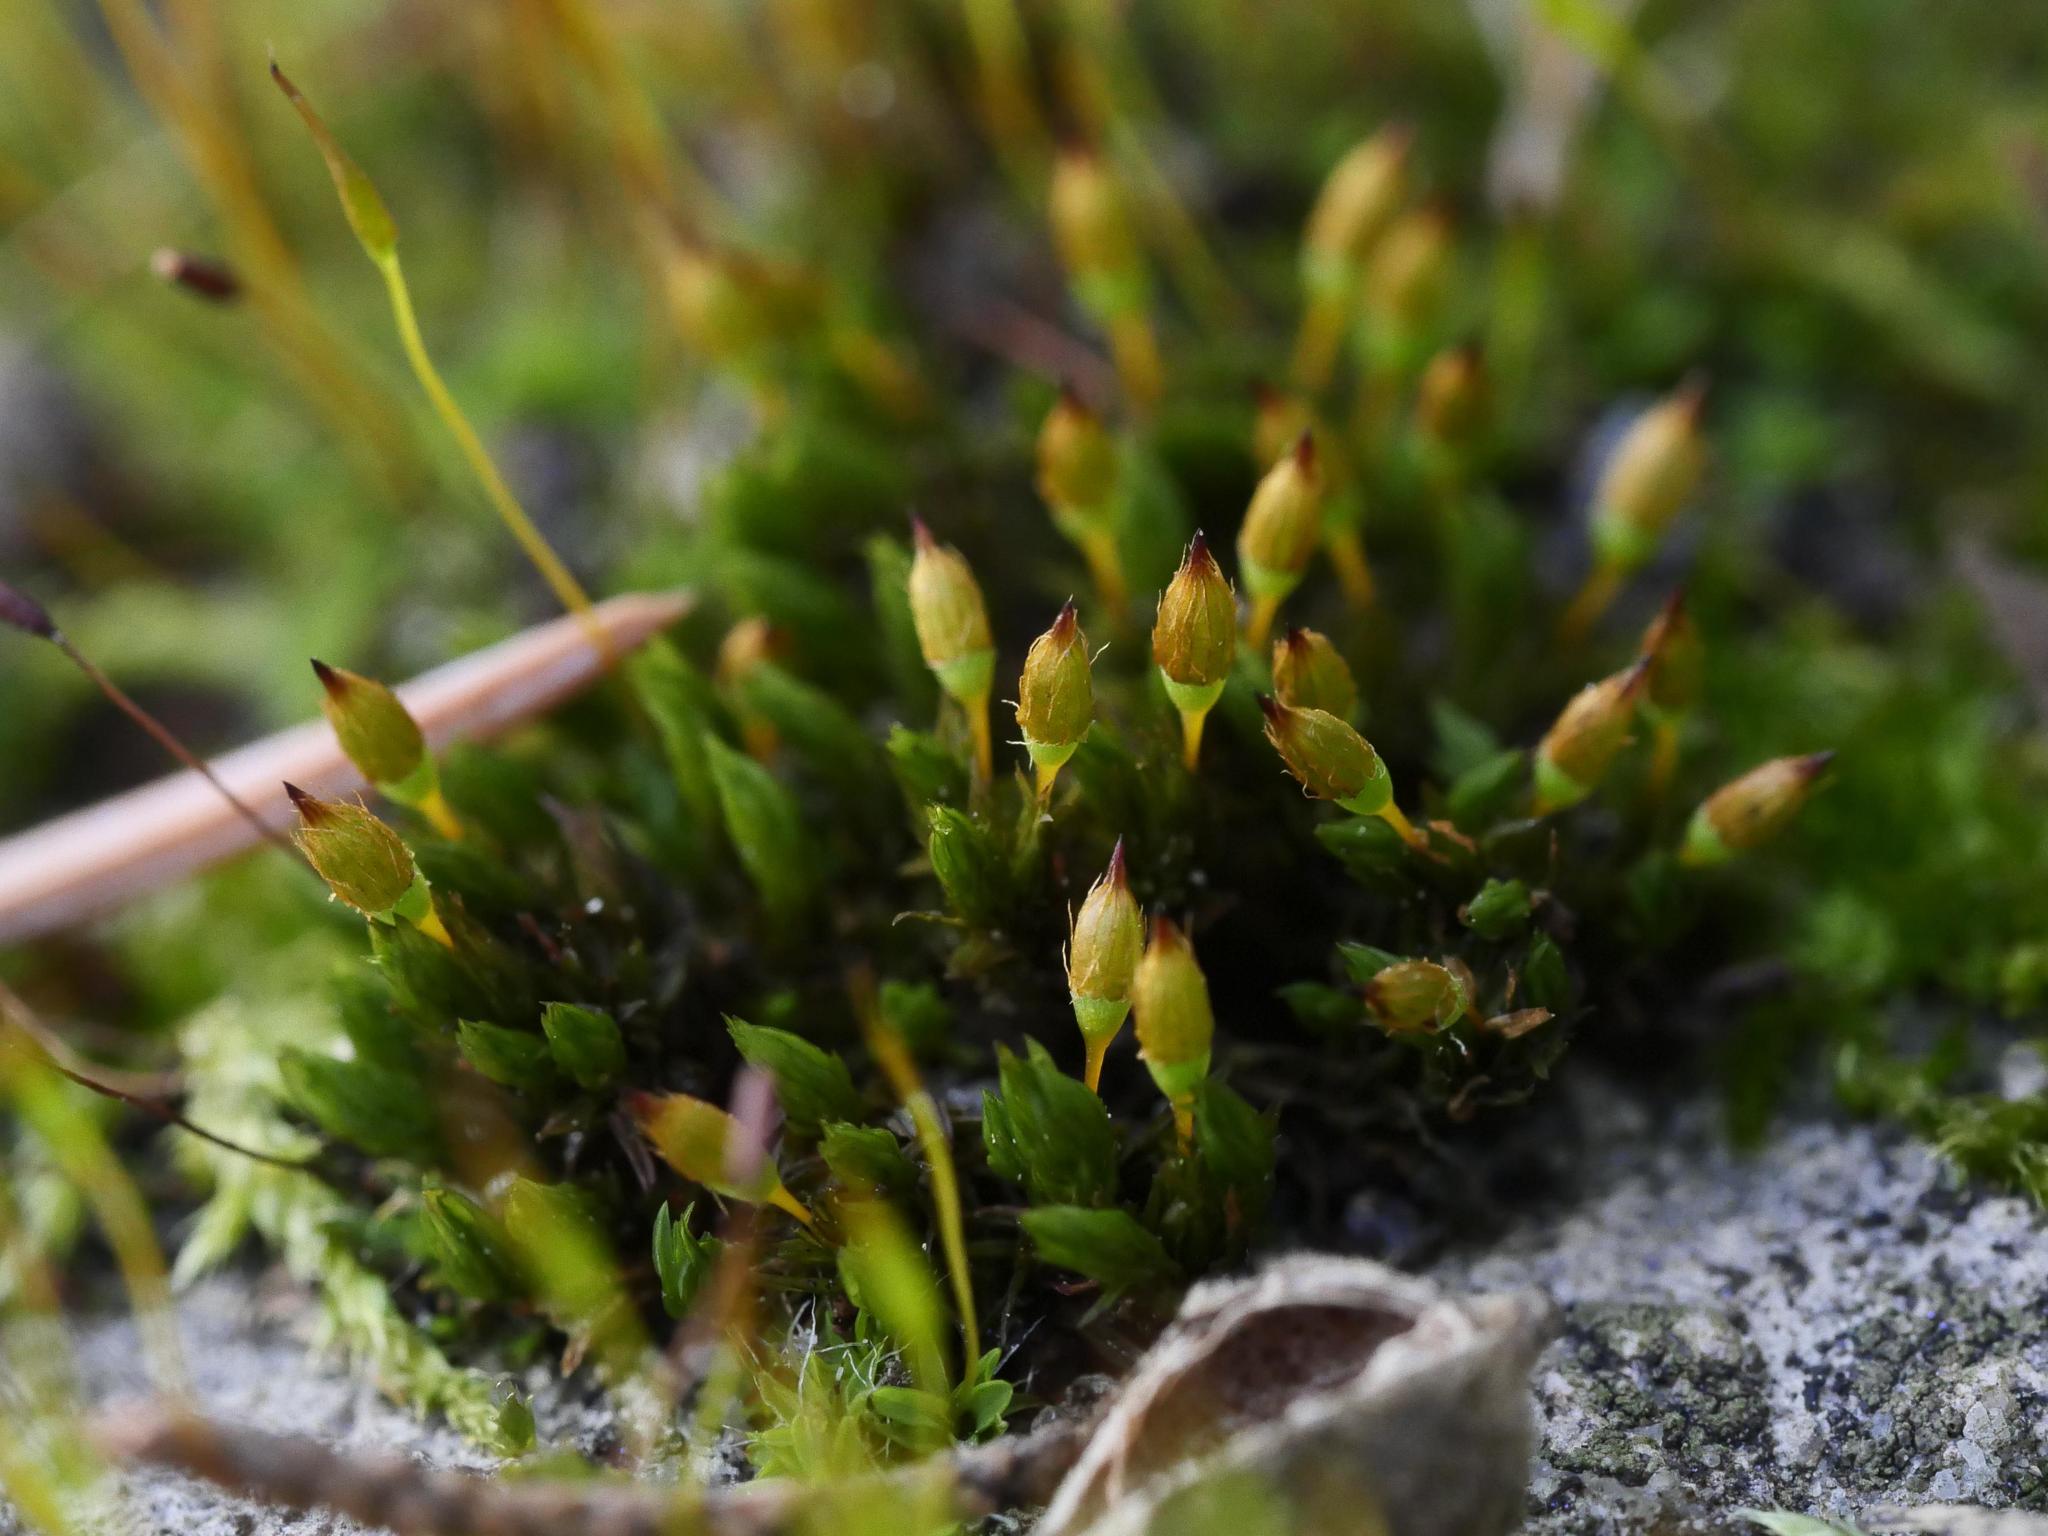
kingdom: Plantae
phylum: Bryophyta
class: Bryopsida
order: Orthotrichales
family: Orthotrichaceae
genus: Orthotrichum
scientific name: Orthotrichum anomalum
